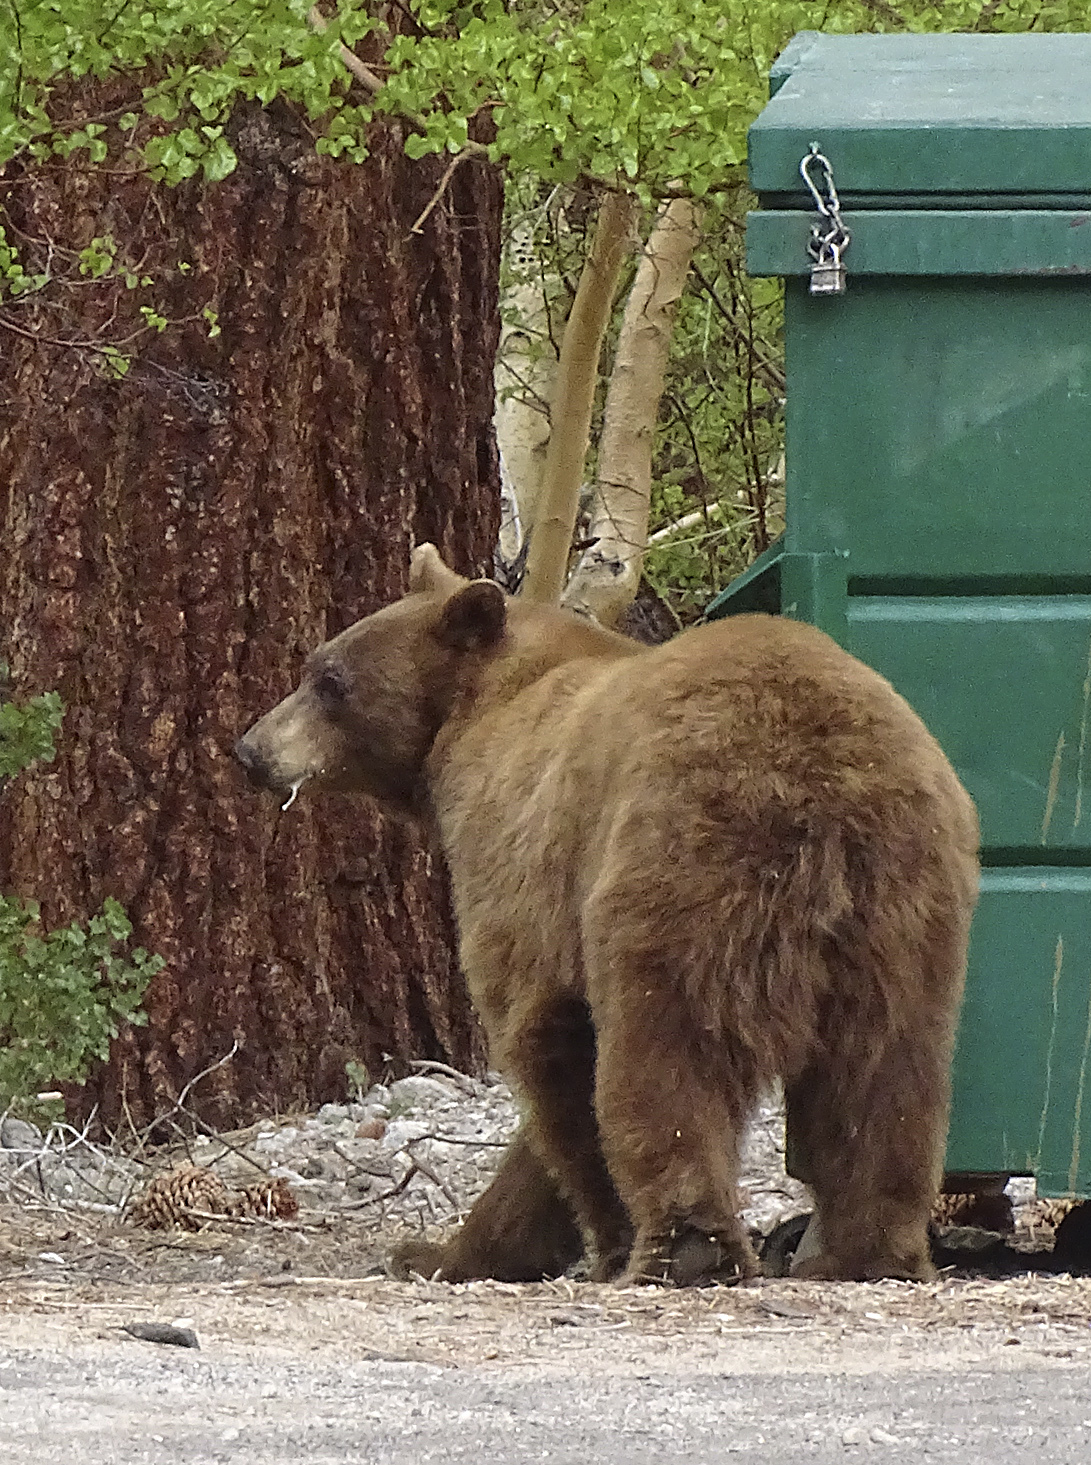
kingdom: Animalia
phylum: Chordata
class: Mammalia
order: Carnivora
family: Ursidae
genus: Ursus
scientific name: Ursus americanus
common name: American black bear
